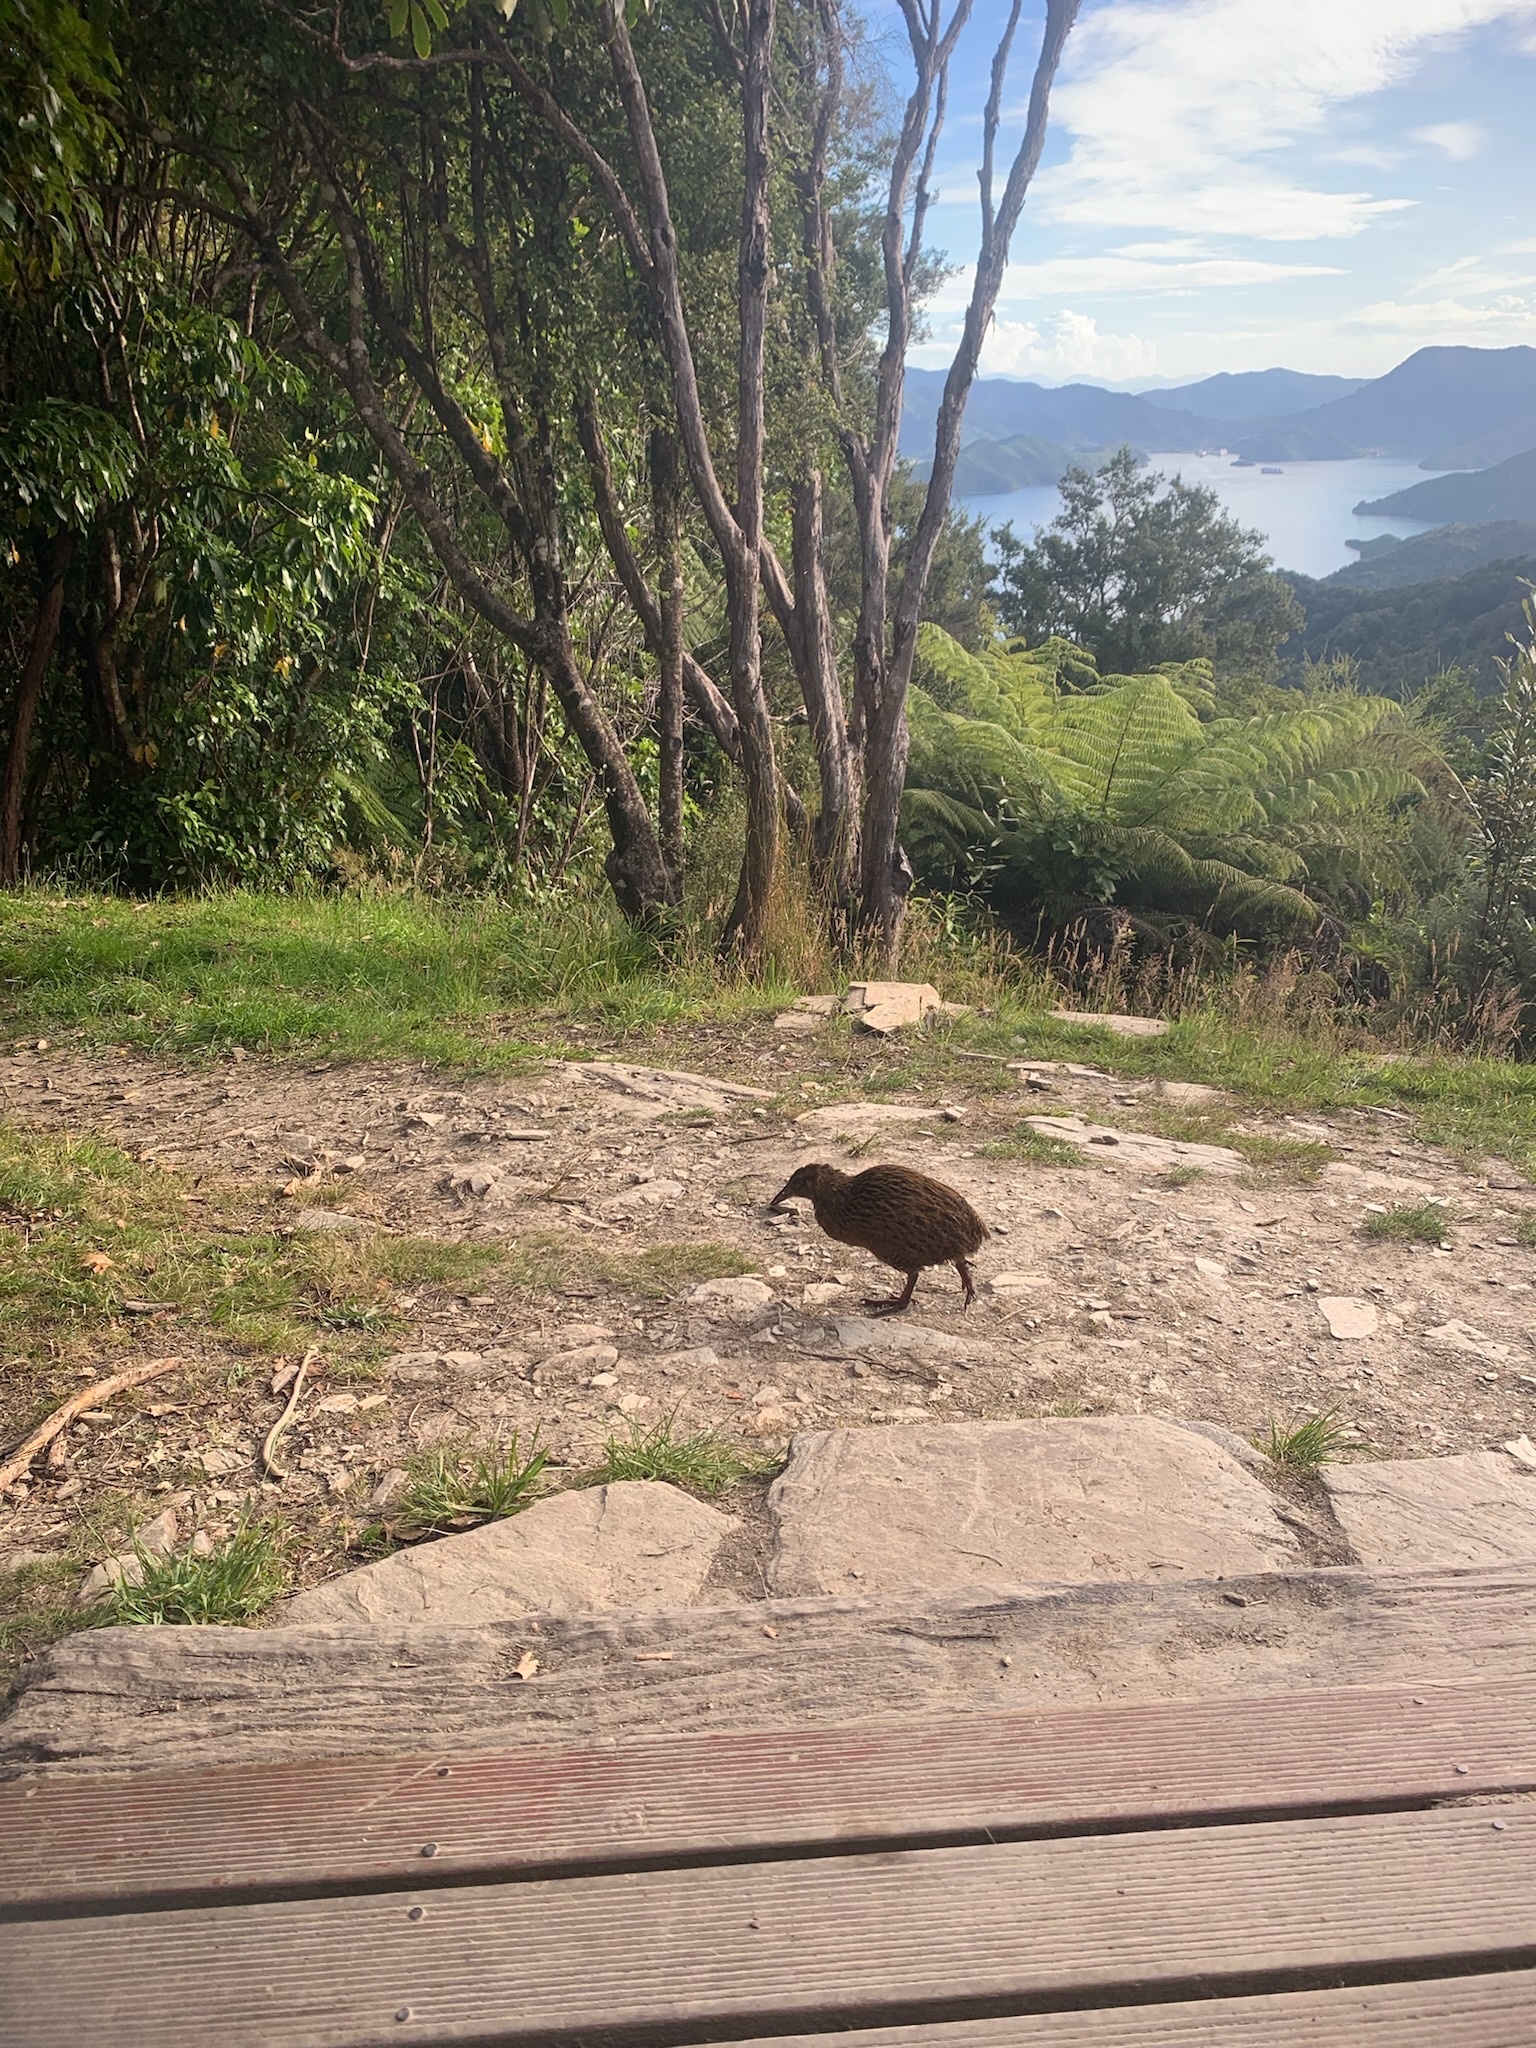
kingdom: Animalia
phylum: Chordata
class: Aves
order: Gruiformes
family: Rallidae
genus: Gallirallus
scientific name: Gallirallus australis
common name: Weka
